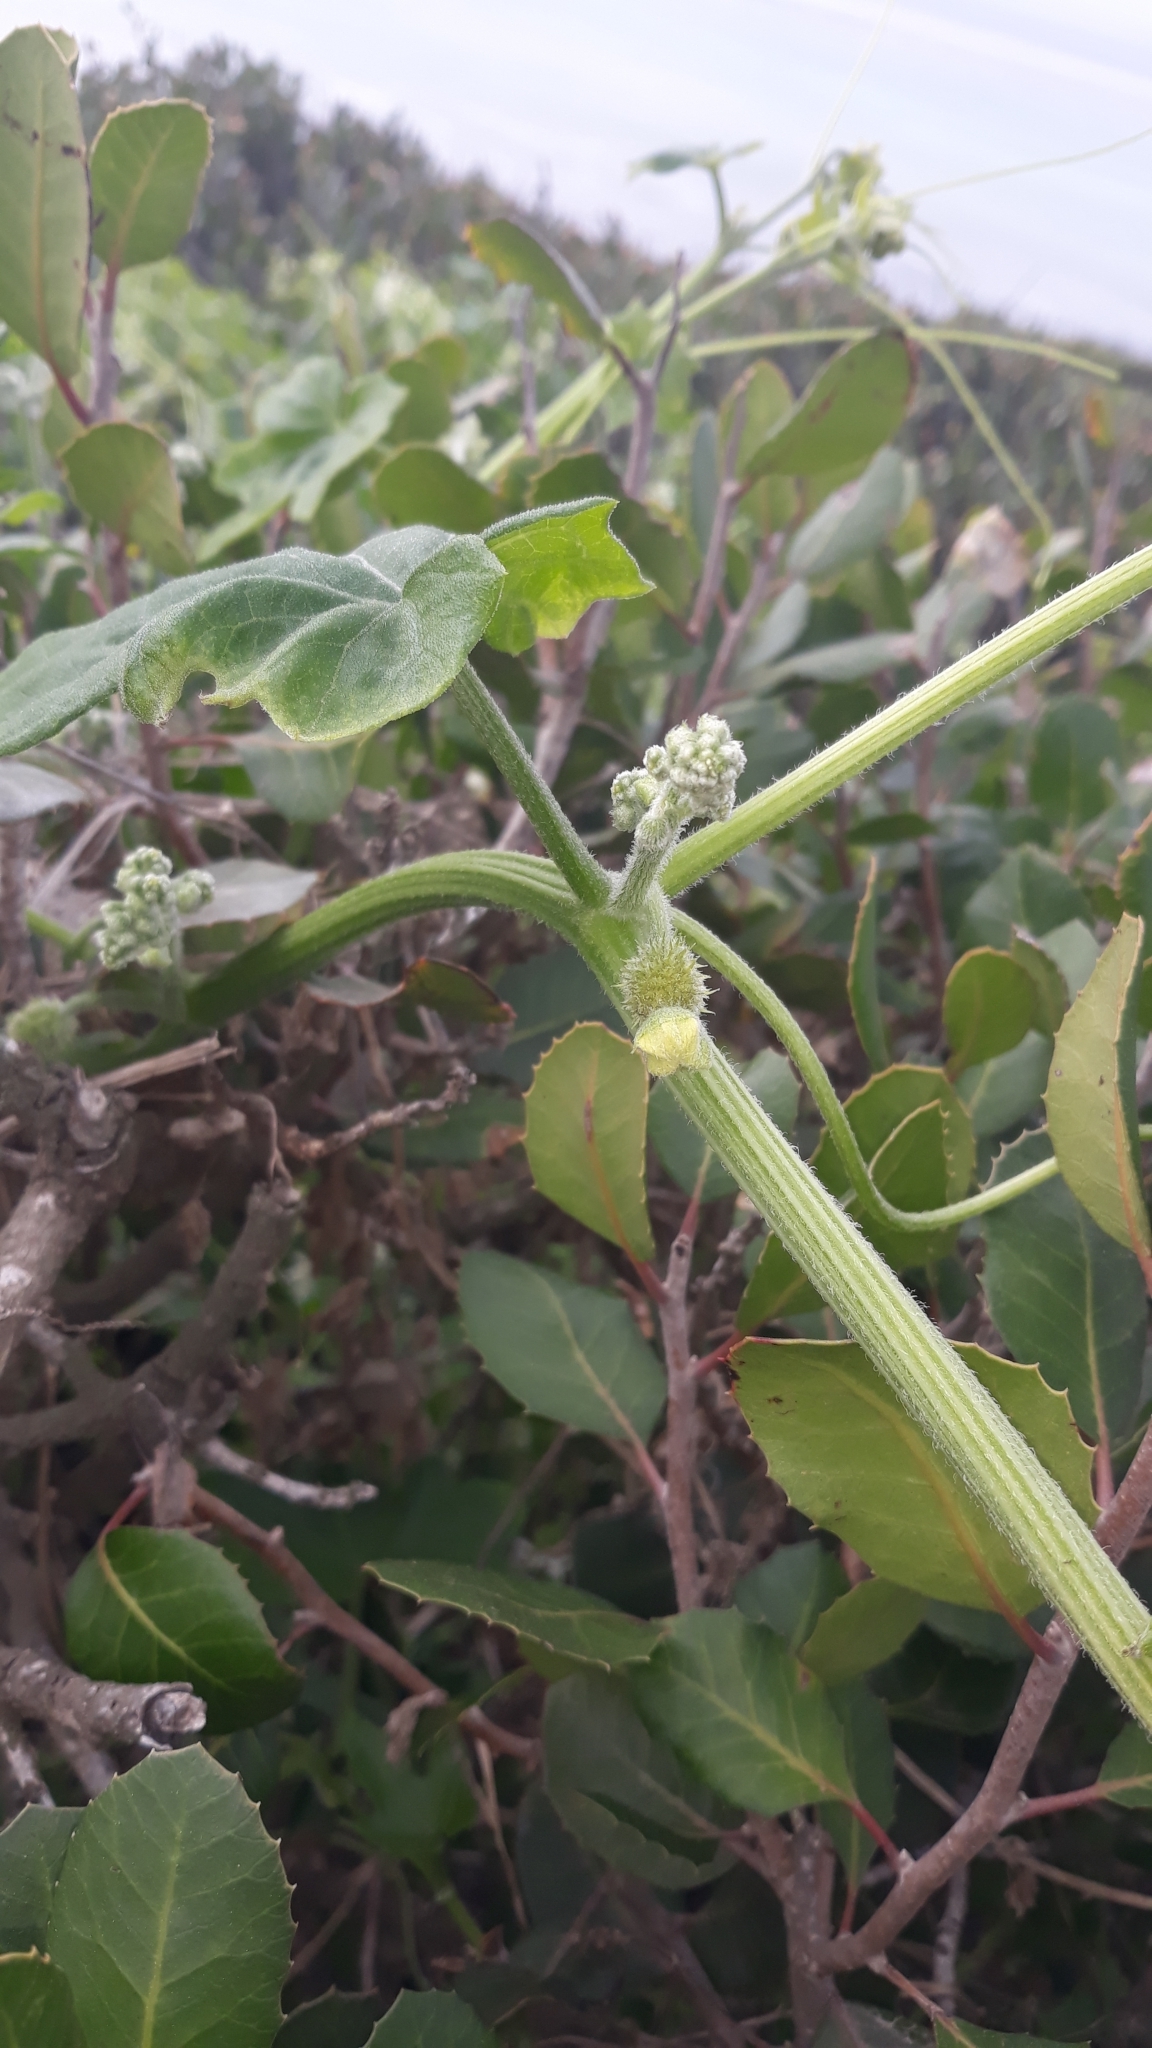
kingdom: Plantae
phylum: Tracheophyta
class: Magnoliopsida
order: Cucurbitales
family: Cucurbitaceae
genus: Marah
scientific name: Marah macrocarpa
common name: Cucamonga manroot
